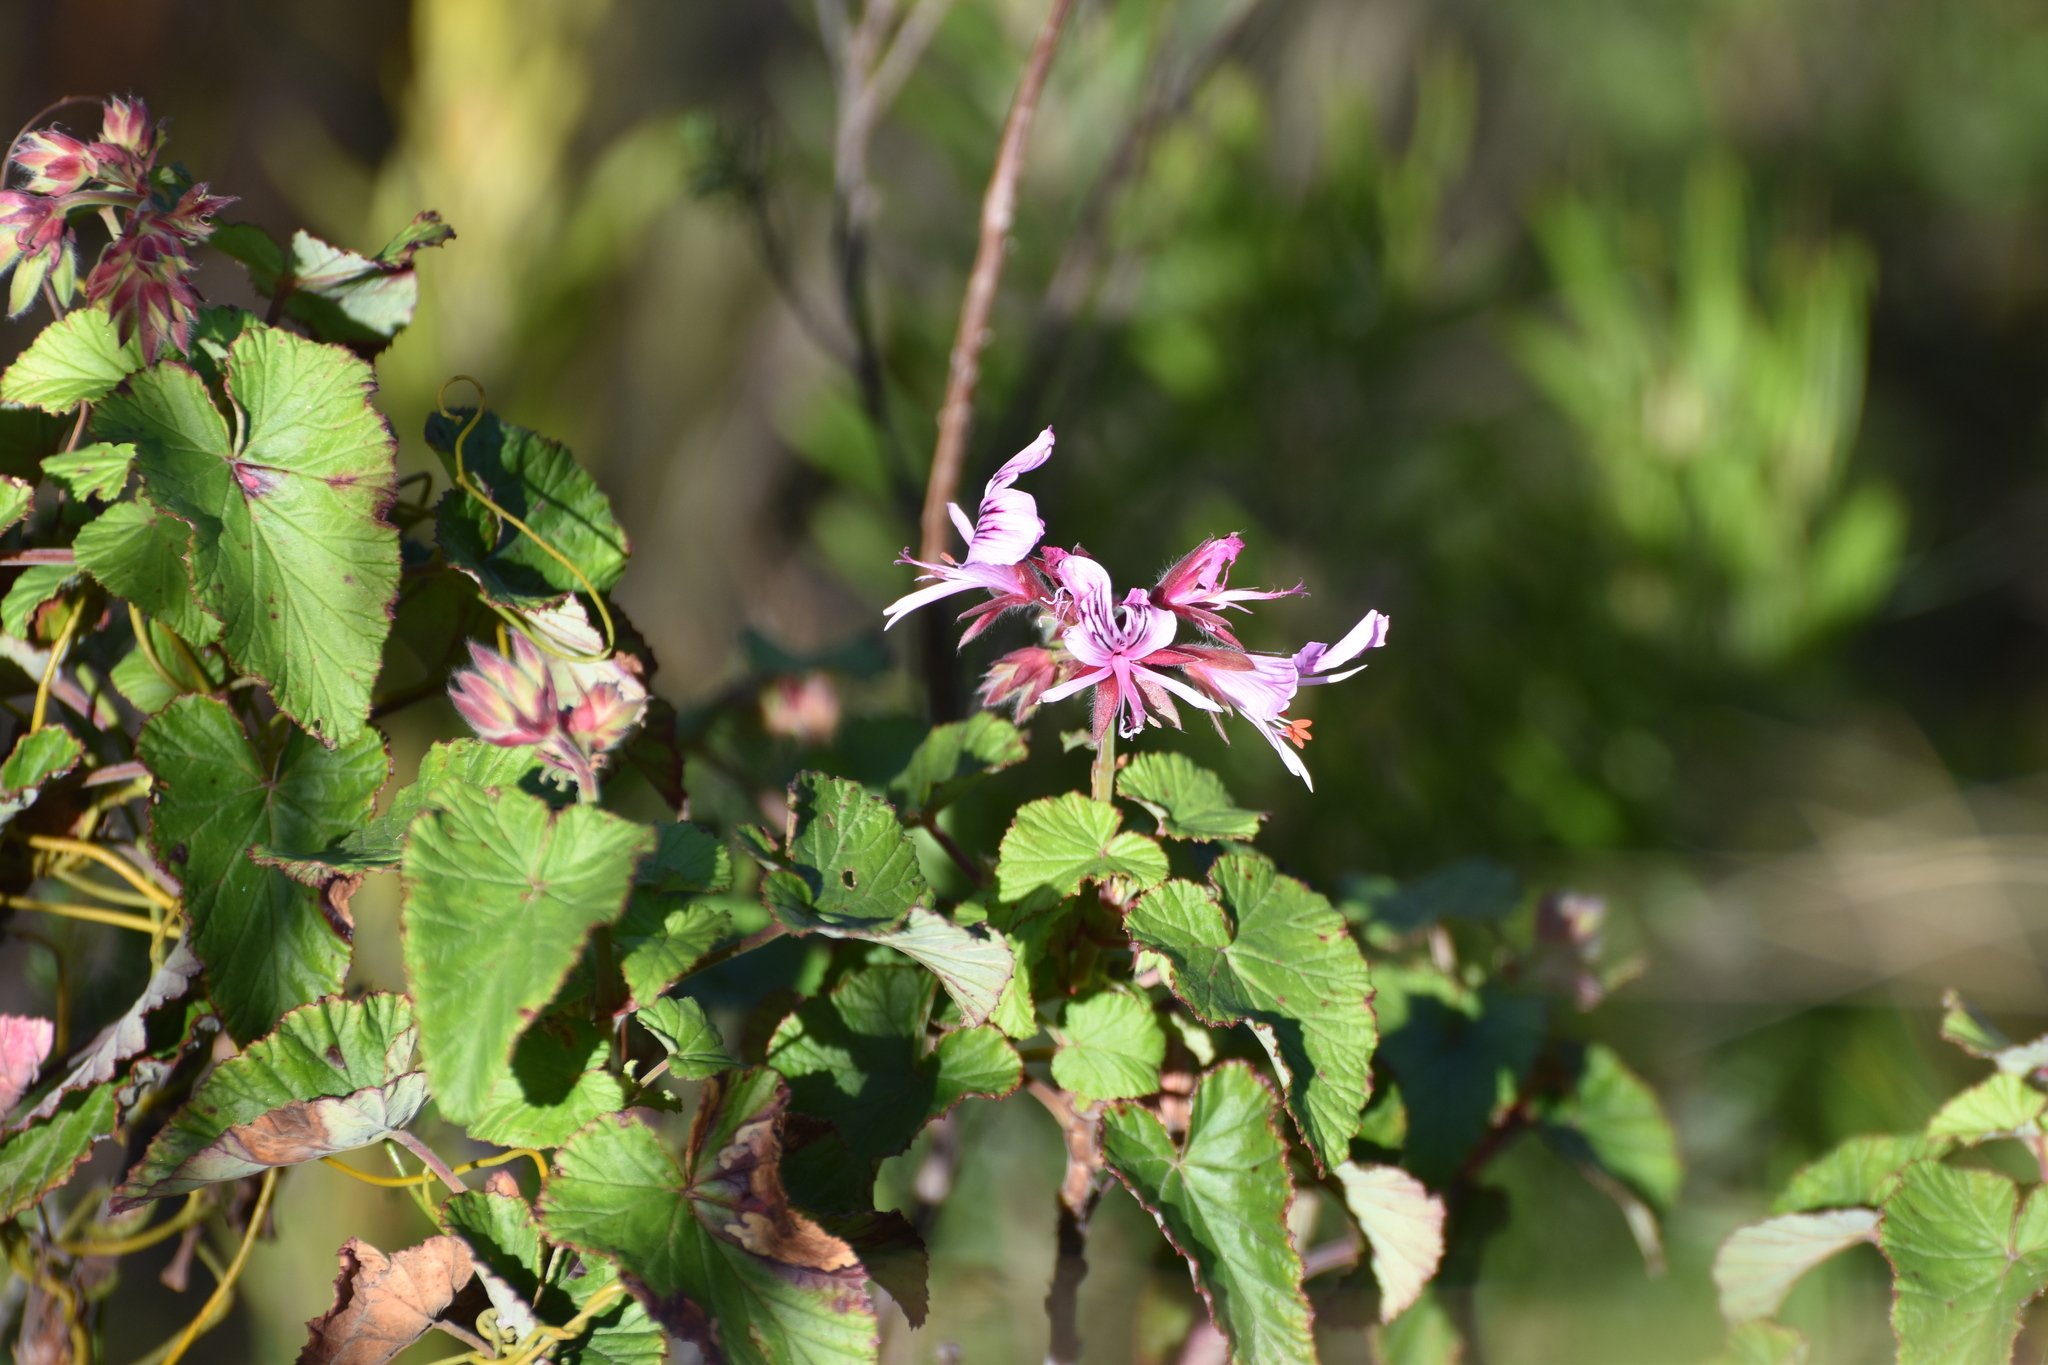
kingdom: Plantae
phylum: Tracheophyta
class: Magnoliopsida
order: Geraniales
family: Geraniaceae
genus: Pelargonium
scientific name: Pelargonium cordifolium
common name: Heart-leaf pelargonium
